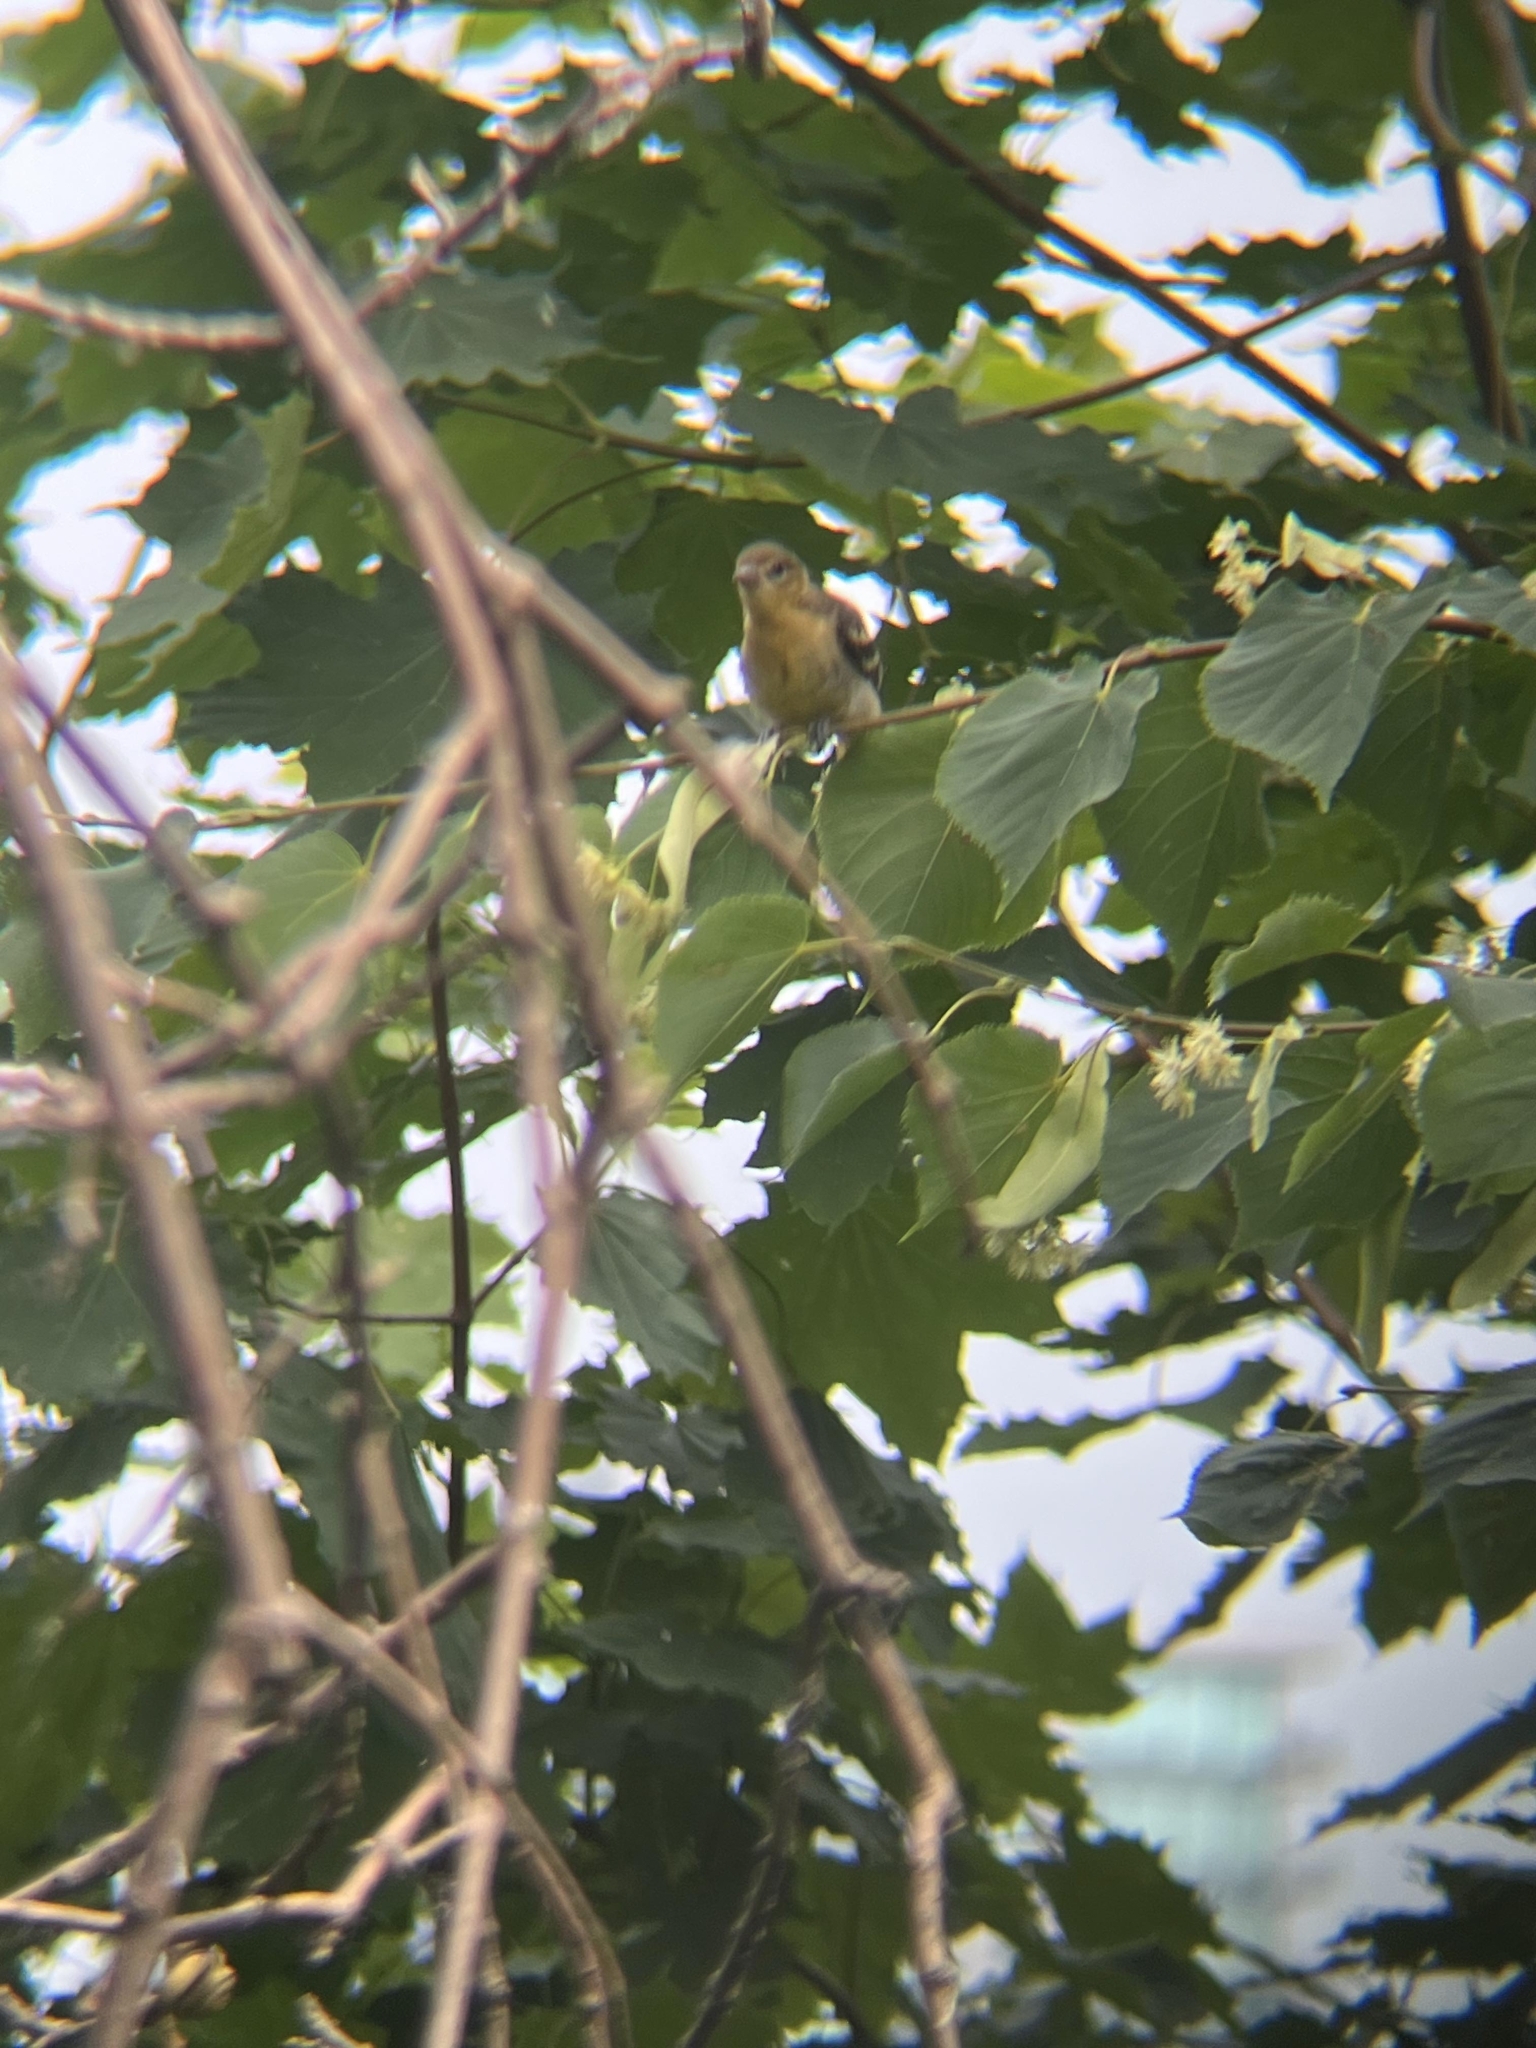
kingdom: Animalia
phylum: Chordata
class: Aves
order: Passeriformes
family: Icteridae
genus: Icterus
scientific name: Icterus galbula
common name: Baltimore oriole
